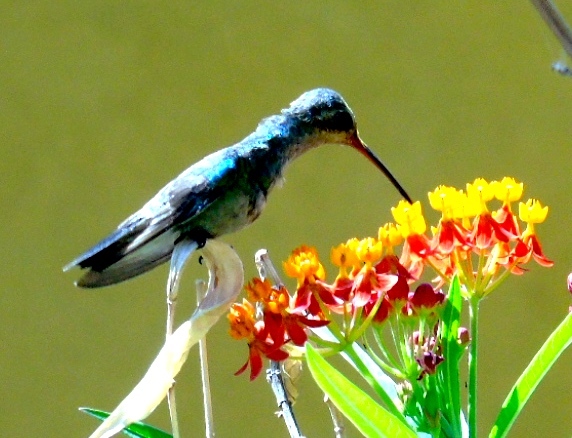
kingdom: Animalia
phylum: Chordata
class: Aves
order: Apodiformes
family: Trochilidae
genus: Cynanthus
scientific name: Cynanthus latirostris
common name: Broad-billed hummingbird
